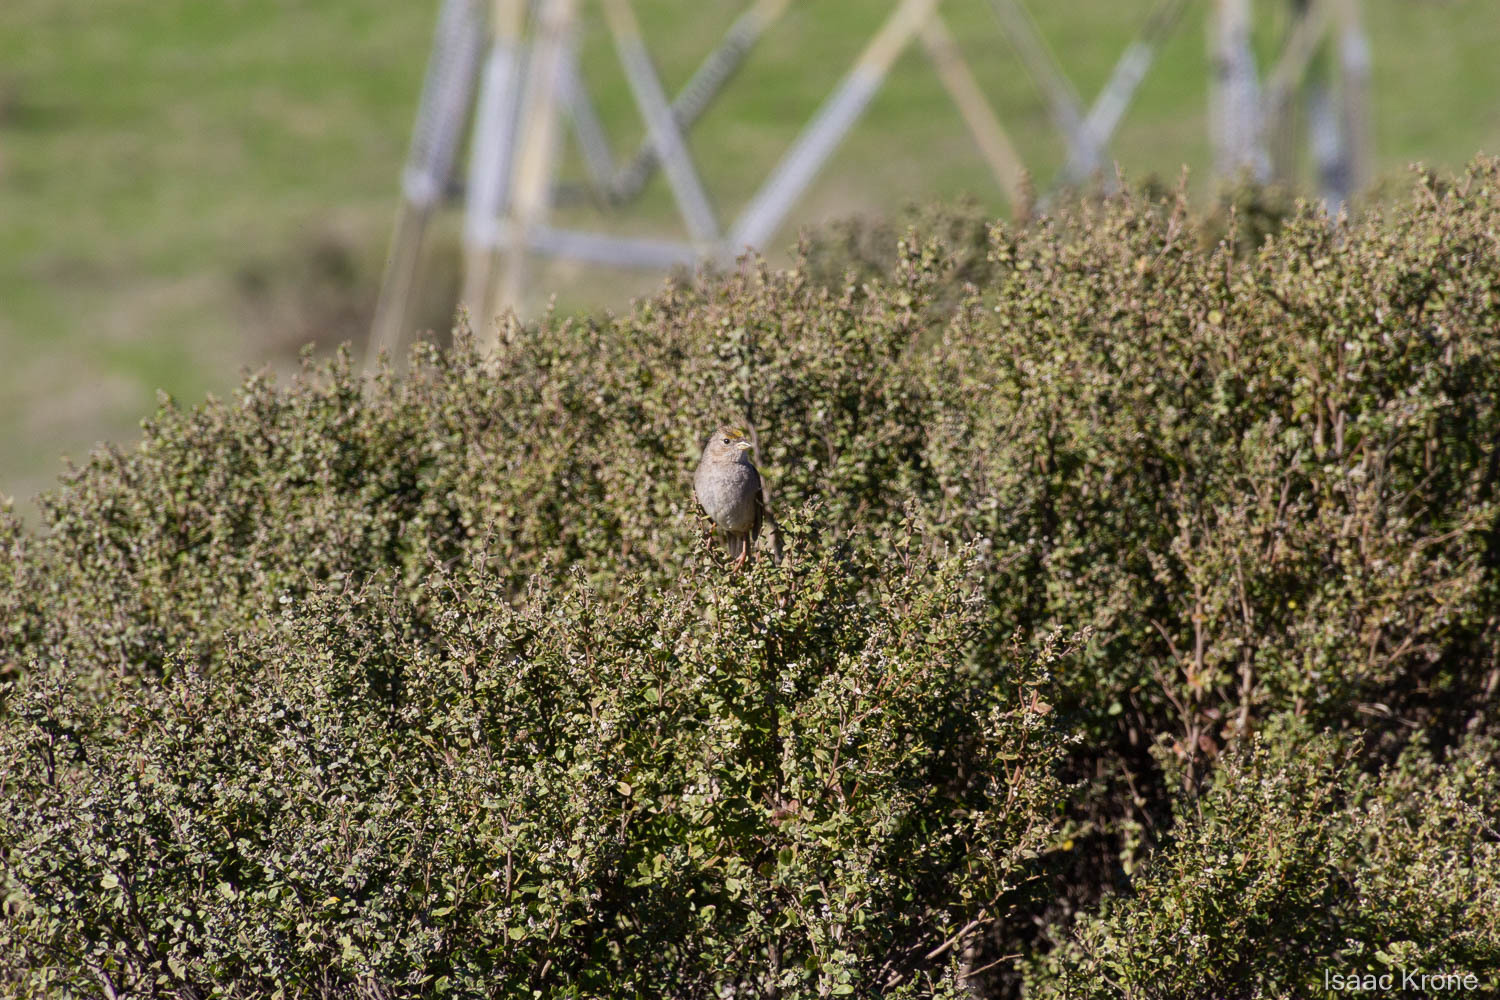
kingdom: Animalia
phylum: Chordata
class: Aves
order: Passeriformes
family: Passerellidae
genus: Zonotrichia
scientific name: Zonotrichia atricapilla
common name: Golden-crowned sparrow
